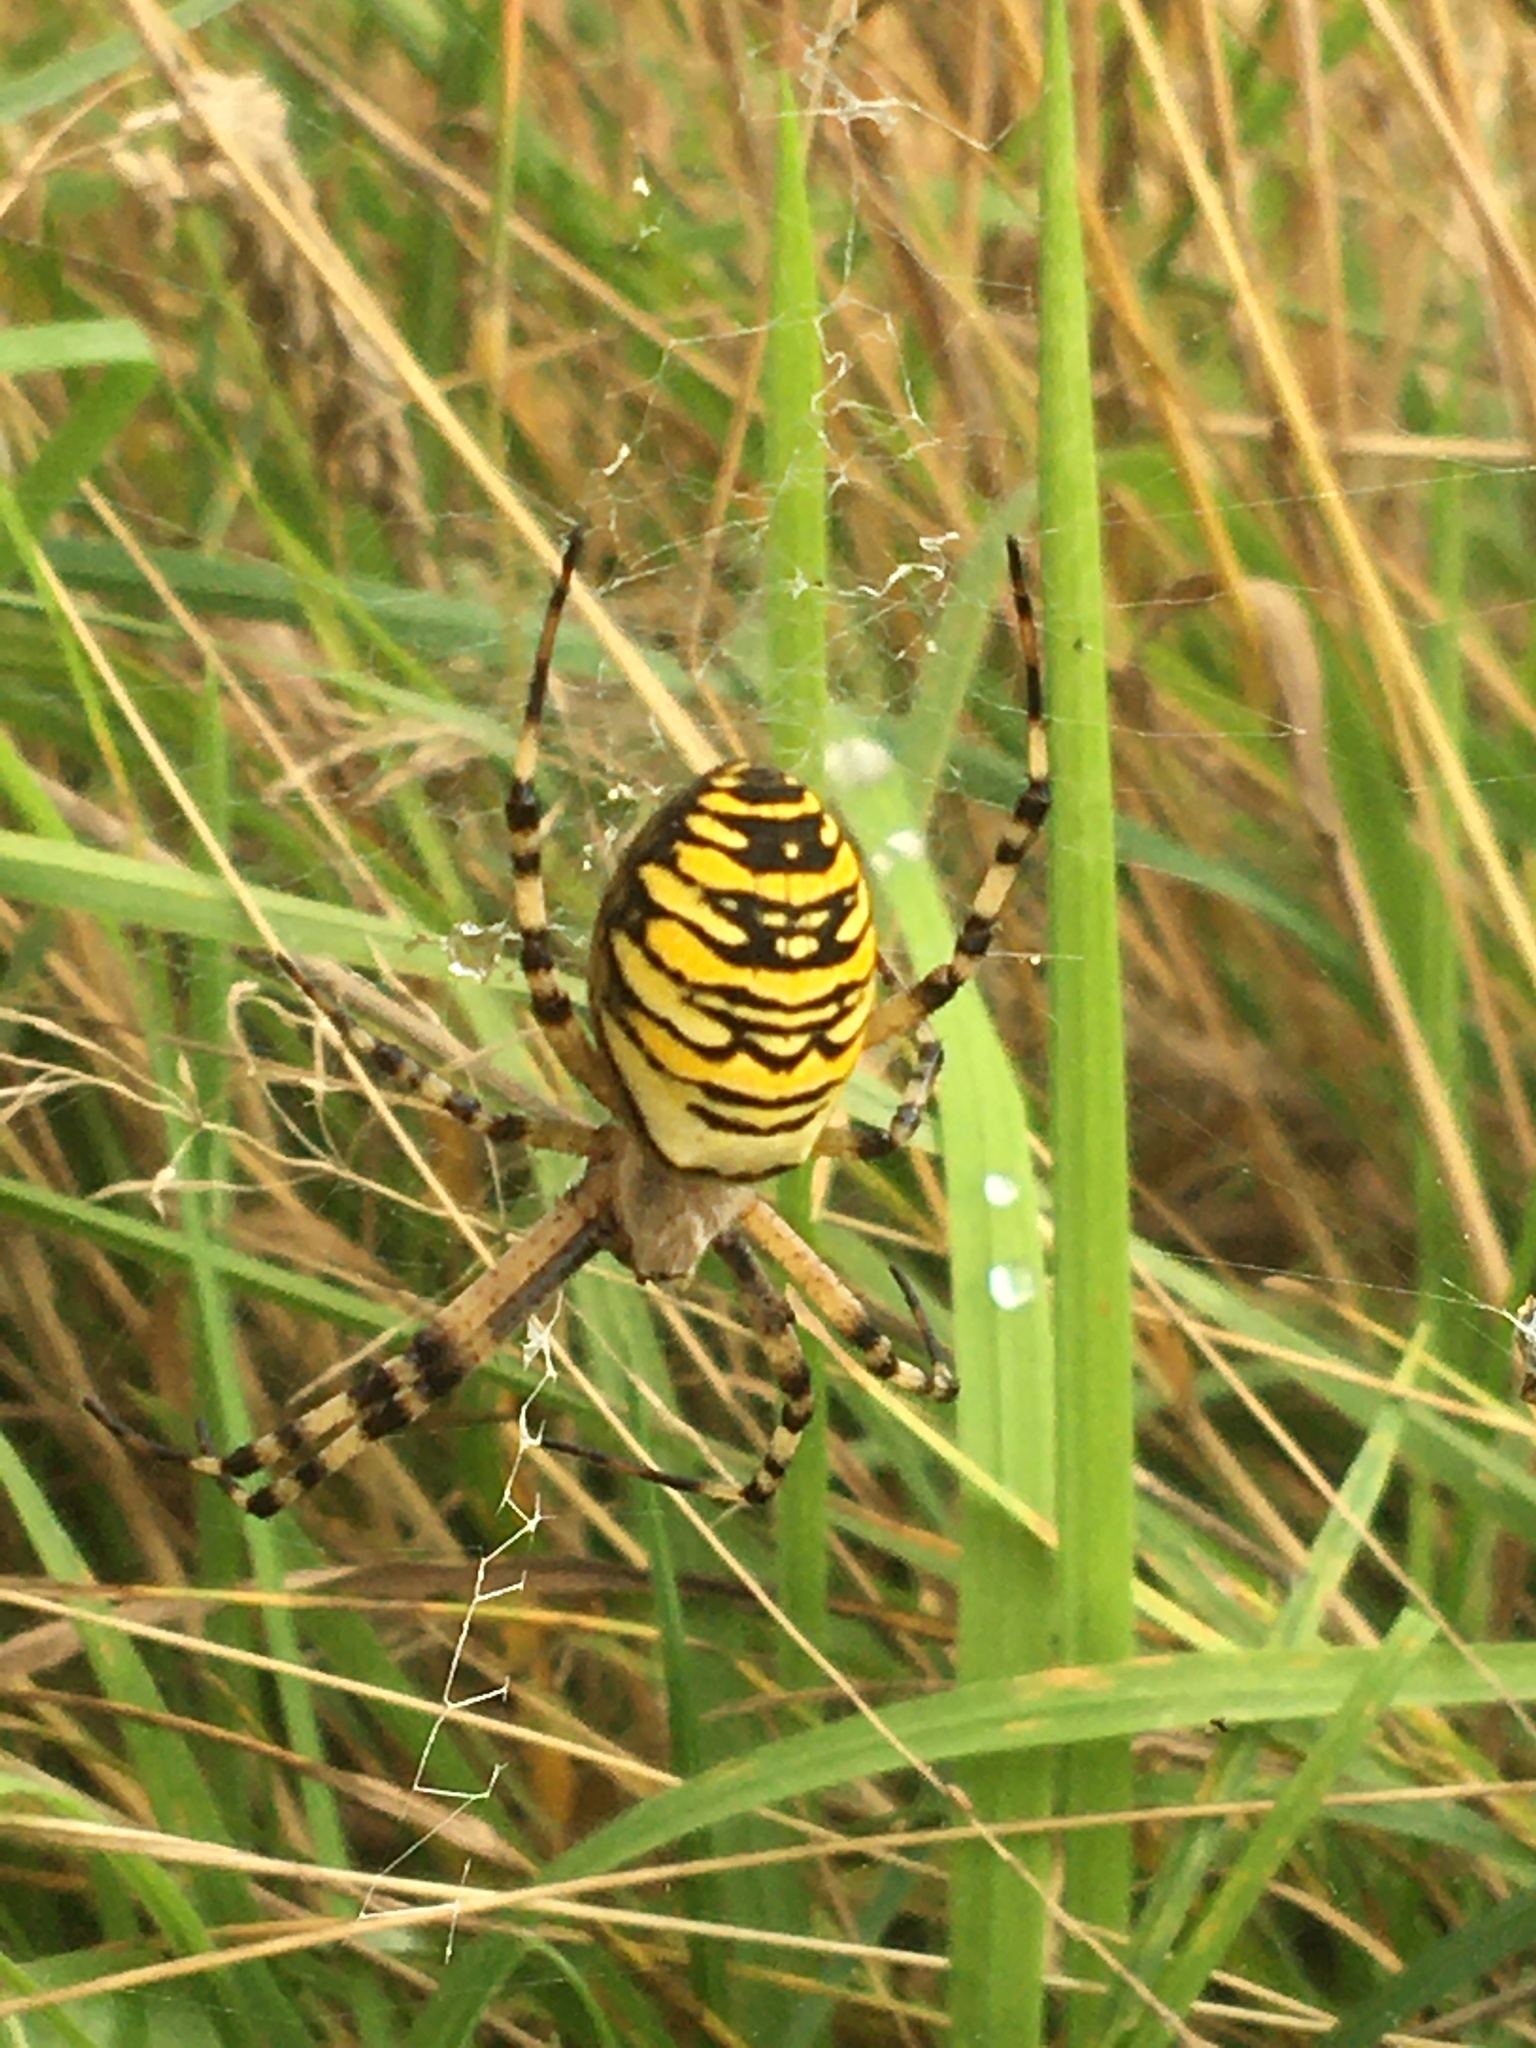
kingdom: Animalia
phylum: Arthropoda
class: Arachnida
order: Araneae
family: Araneidae
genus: Argiope
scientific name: Argiope bruennichi
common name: Wasp spider
